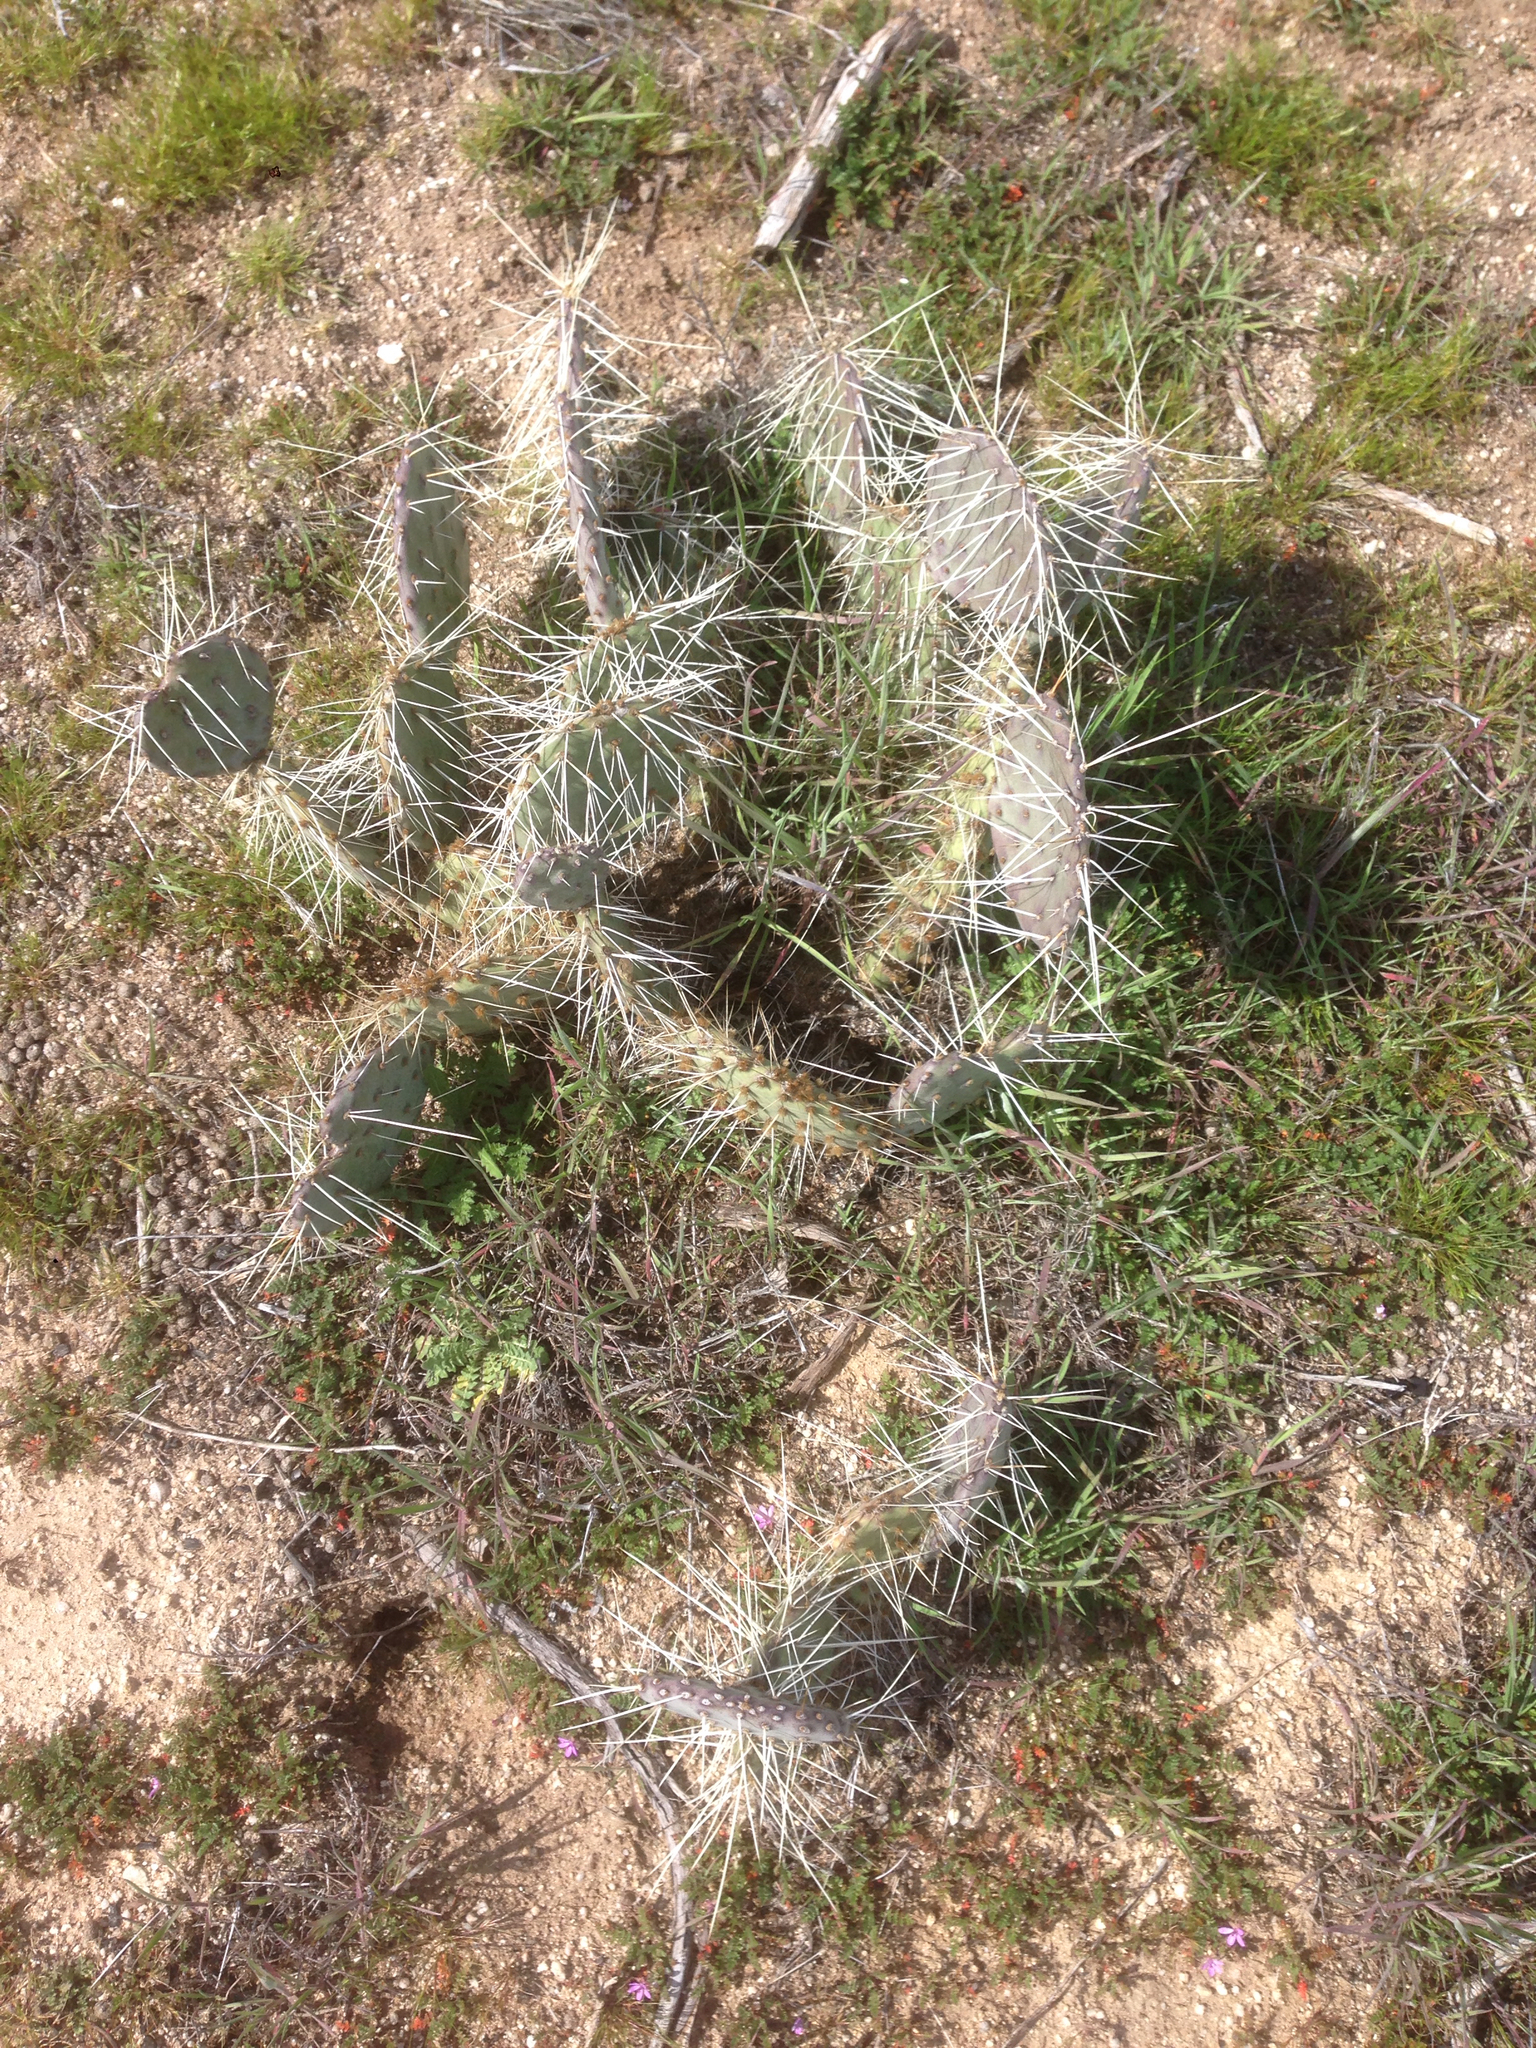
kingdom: Plantae
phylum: Tracheophyta
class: Magnoliopsida
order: Caryophyllales
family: Cactaceae
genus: Opuntia
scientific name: Opuntia phaeacantha
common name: New mexico prickly-pear
